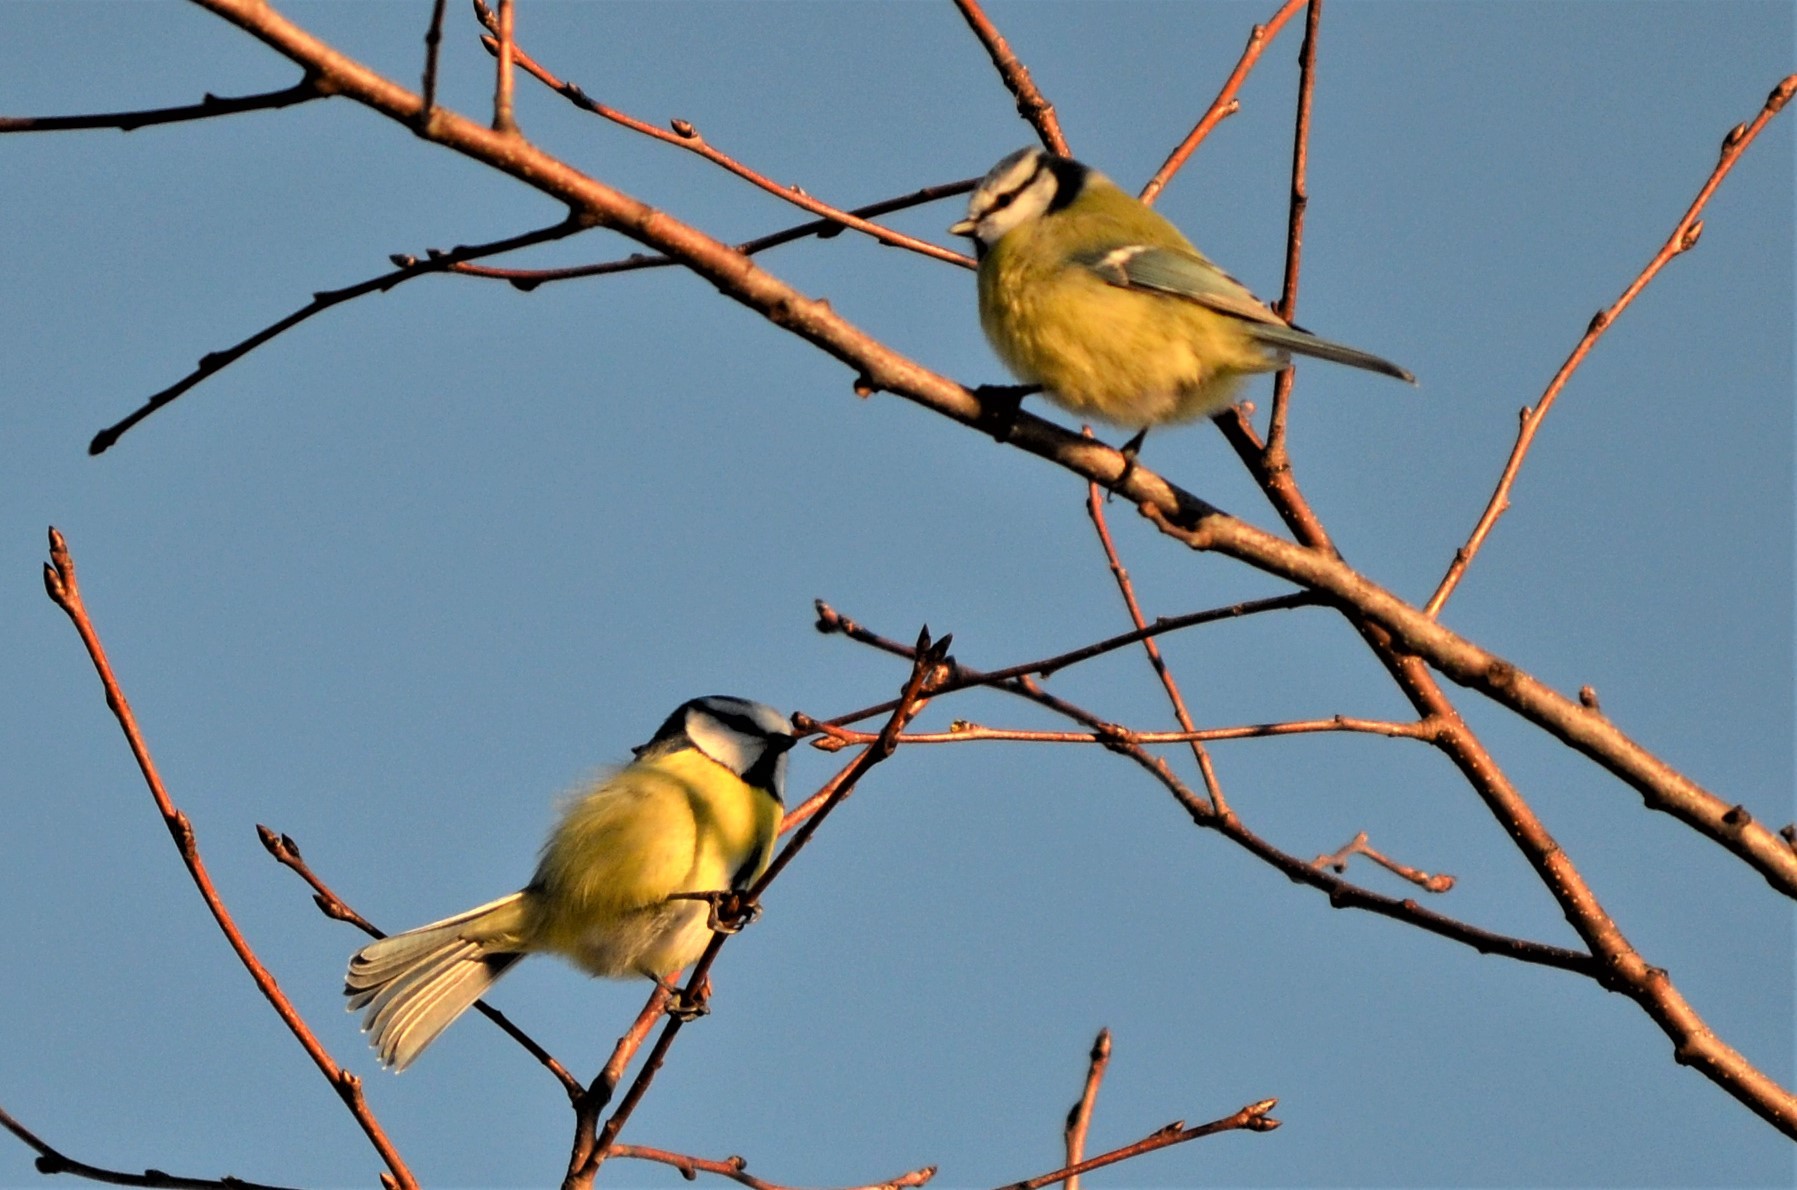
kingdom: Animalia
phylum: Chordata
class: Aves
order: Passeriformes
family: Paridae
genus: Cyanistes
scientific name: Cyanistes caeruleus
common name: Eurasian blue tit
